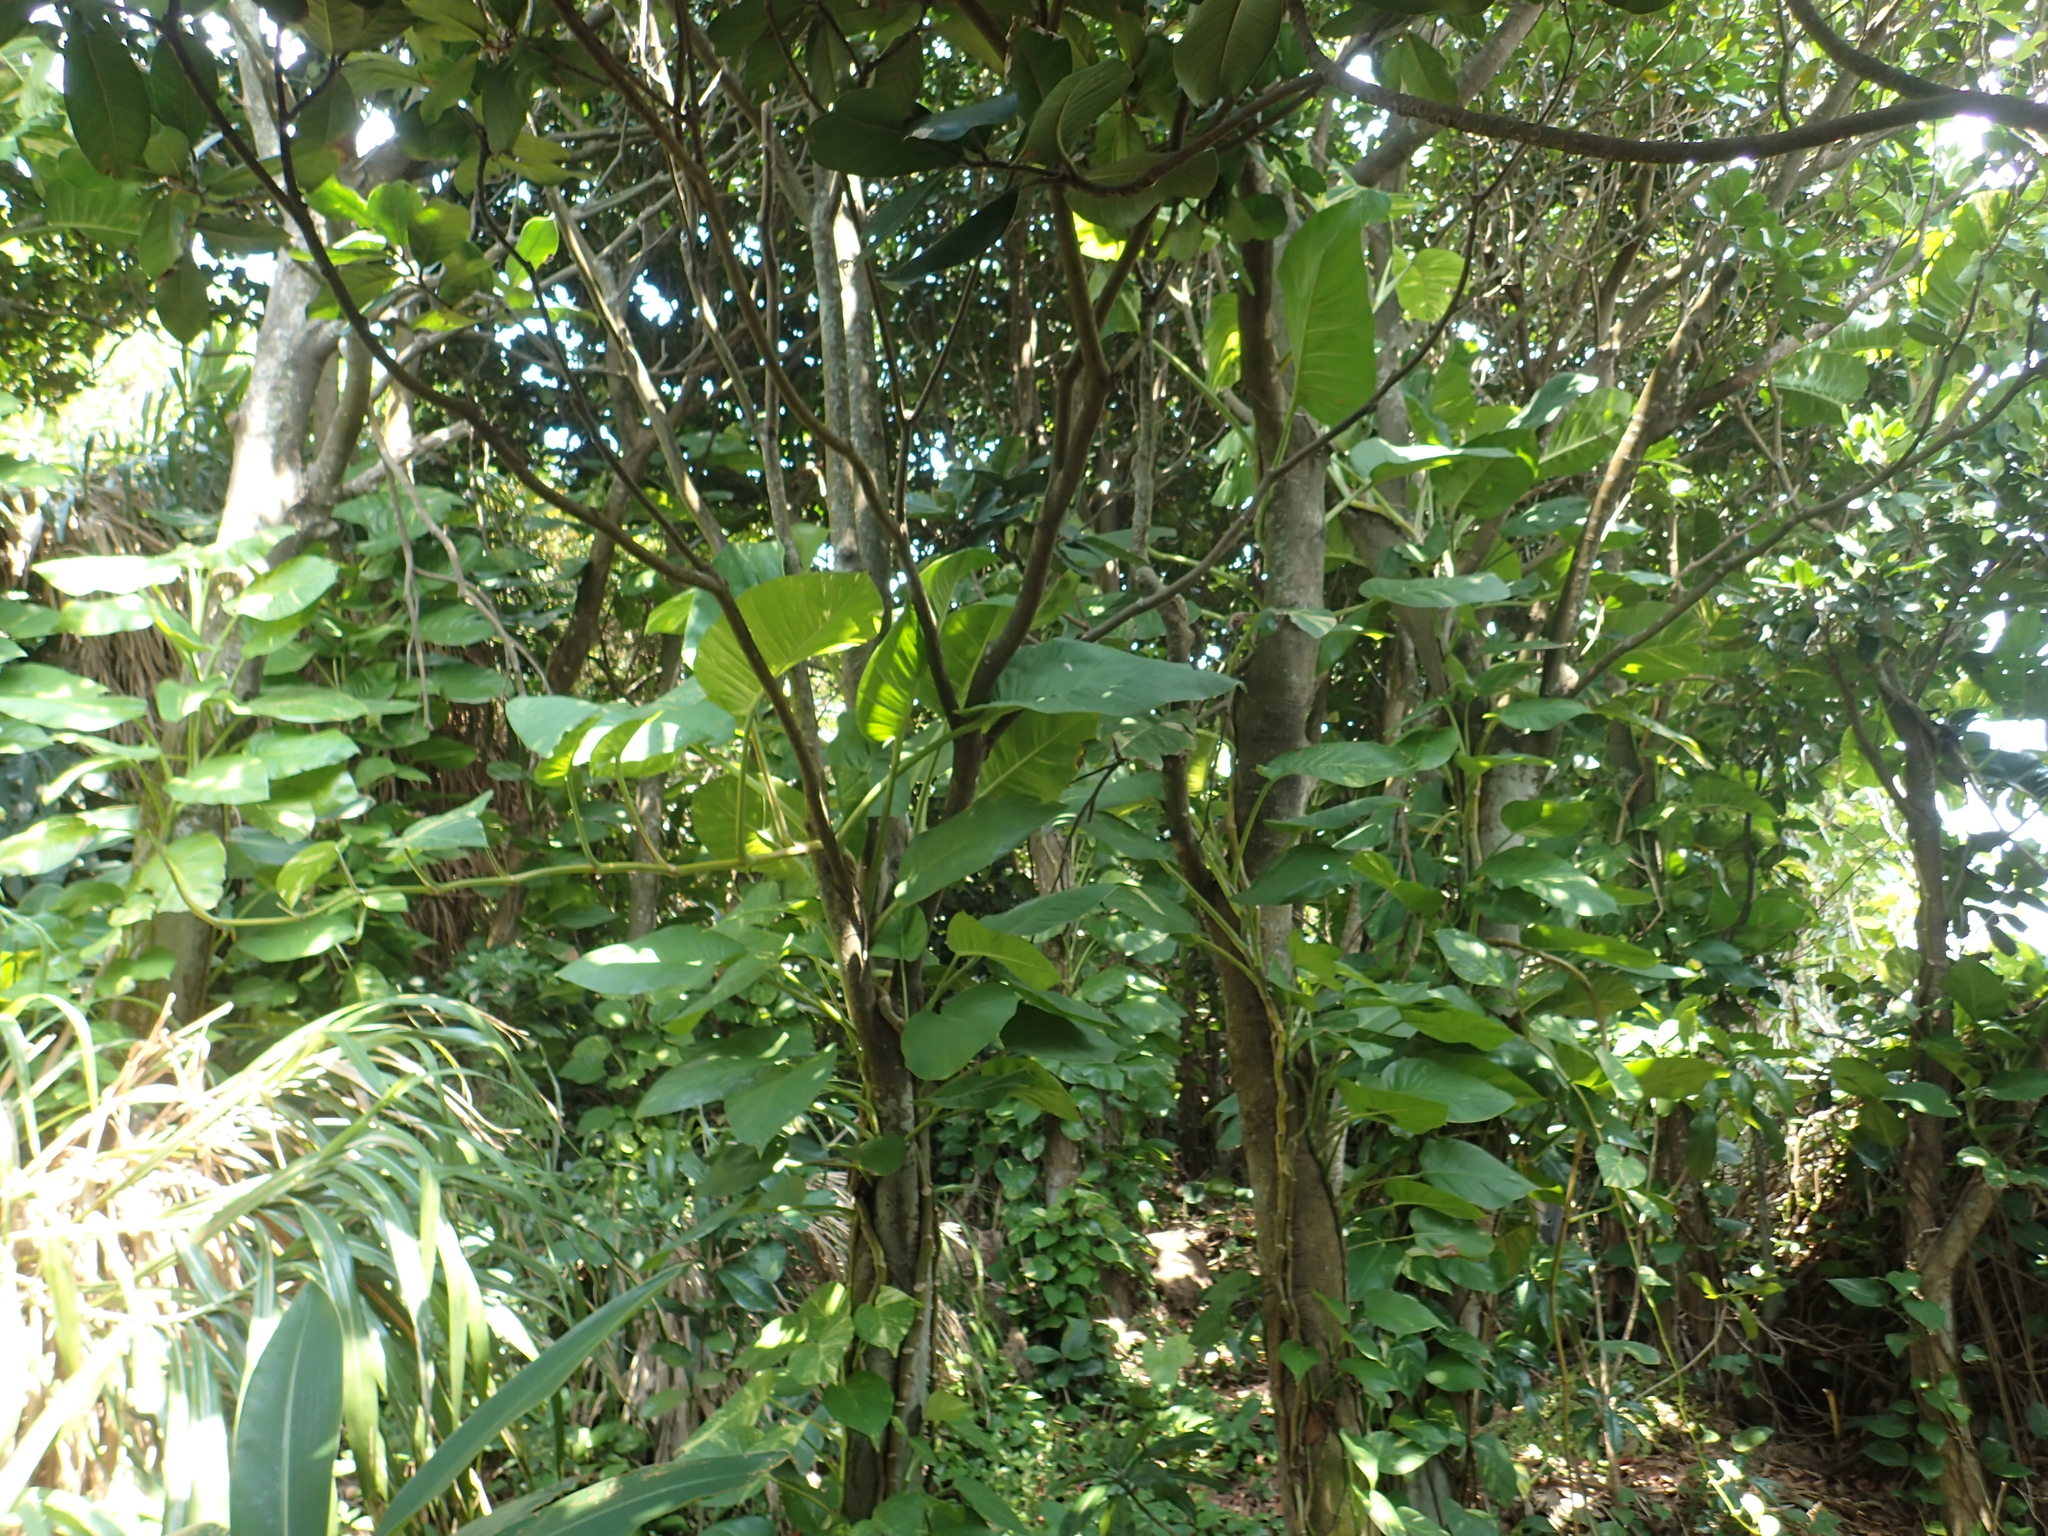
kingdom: Plantae
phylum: Tracheophyta
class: Liliopsida
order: Alismatales
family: Araceae
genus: Epipremnum
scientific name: Epipremnum aureum
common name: Golden hunter's-robe
